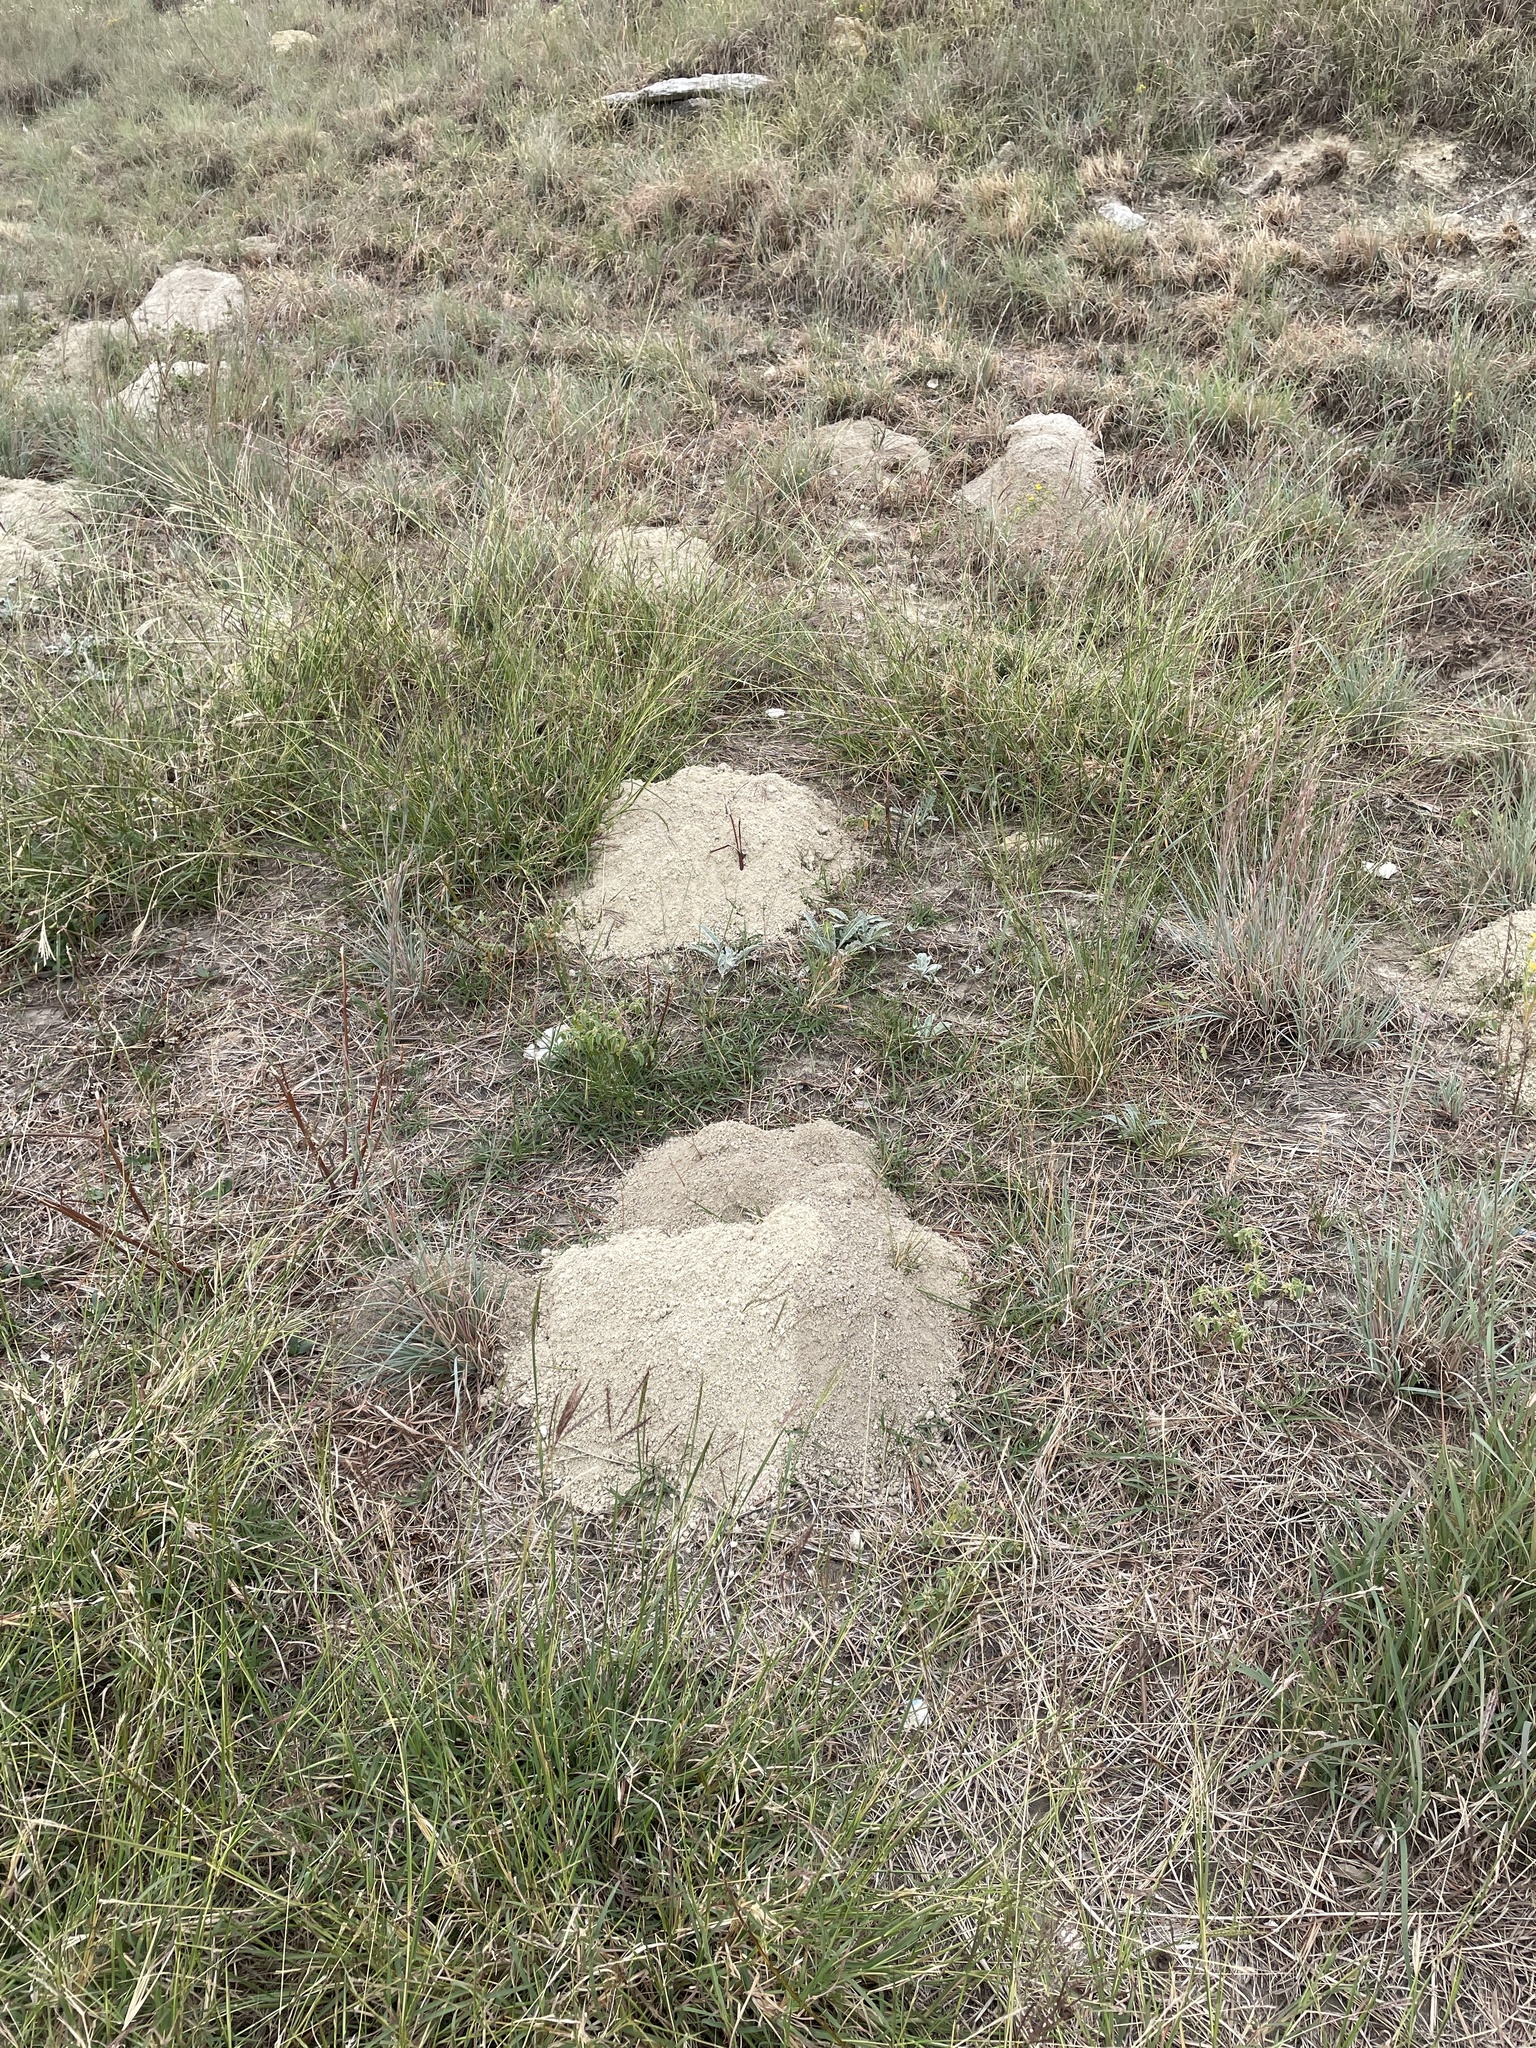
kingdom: Animalia
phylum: Chordata
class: Mammalia
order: Rodentia
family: Geomyidae
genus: Geomys
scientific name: Geomys bursarius
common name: Plains pocket gopher
